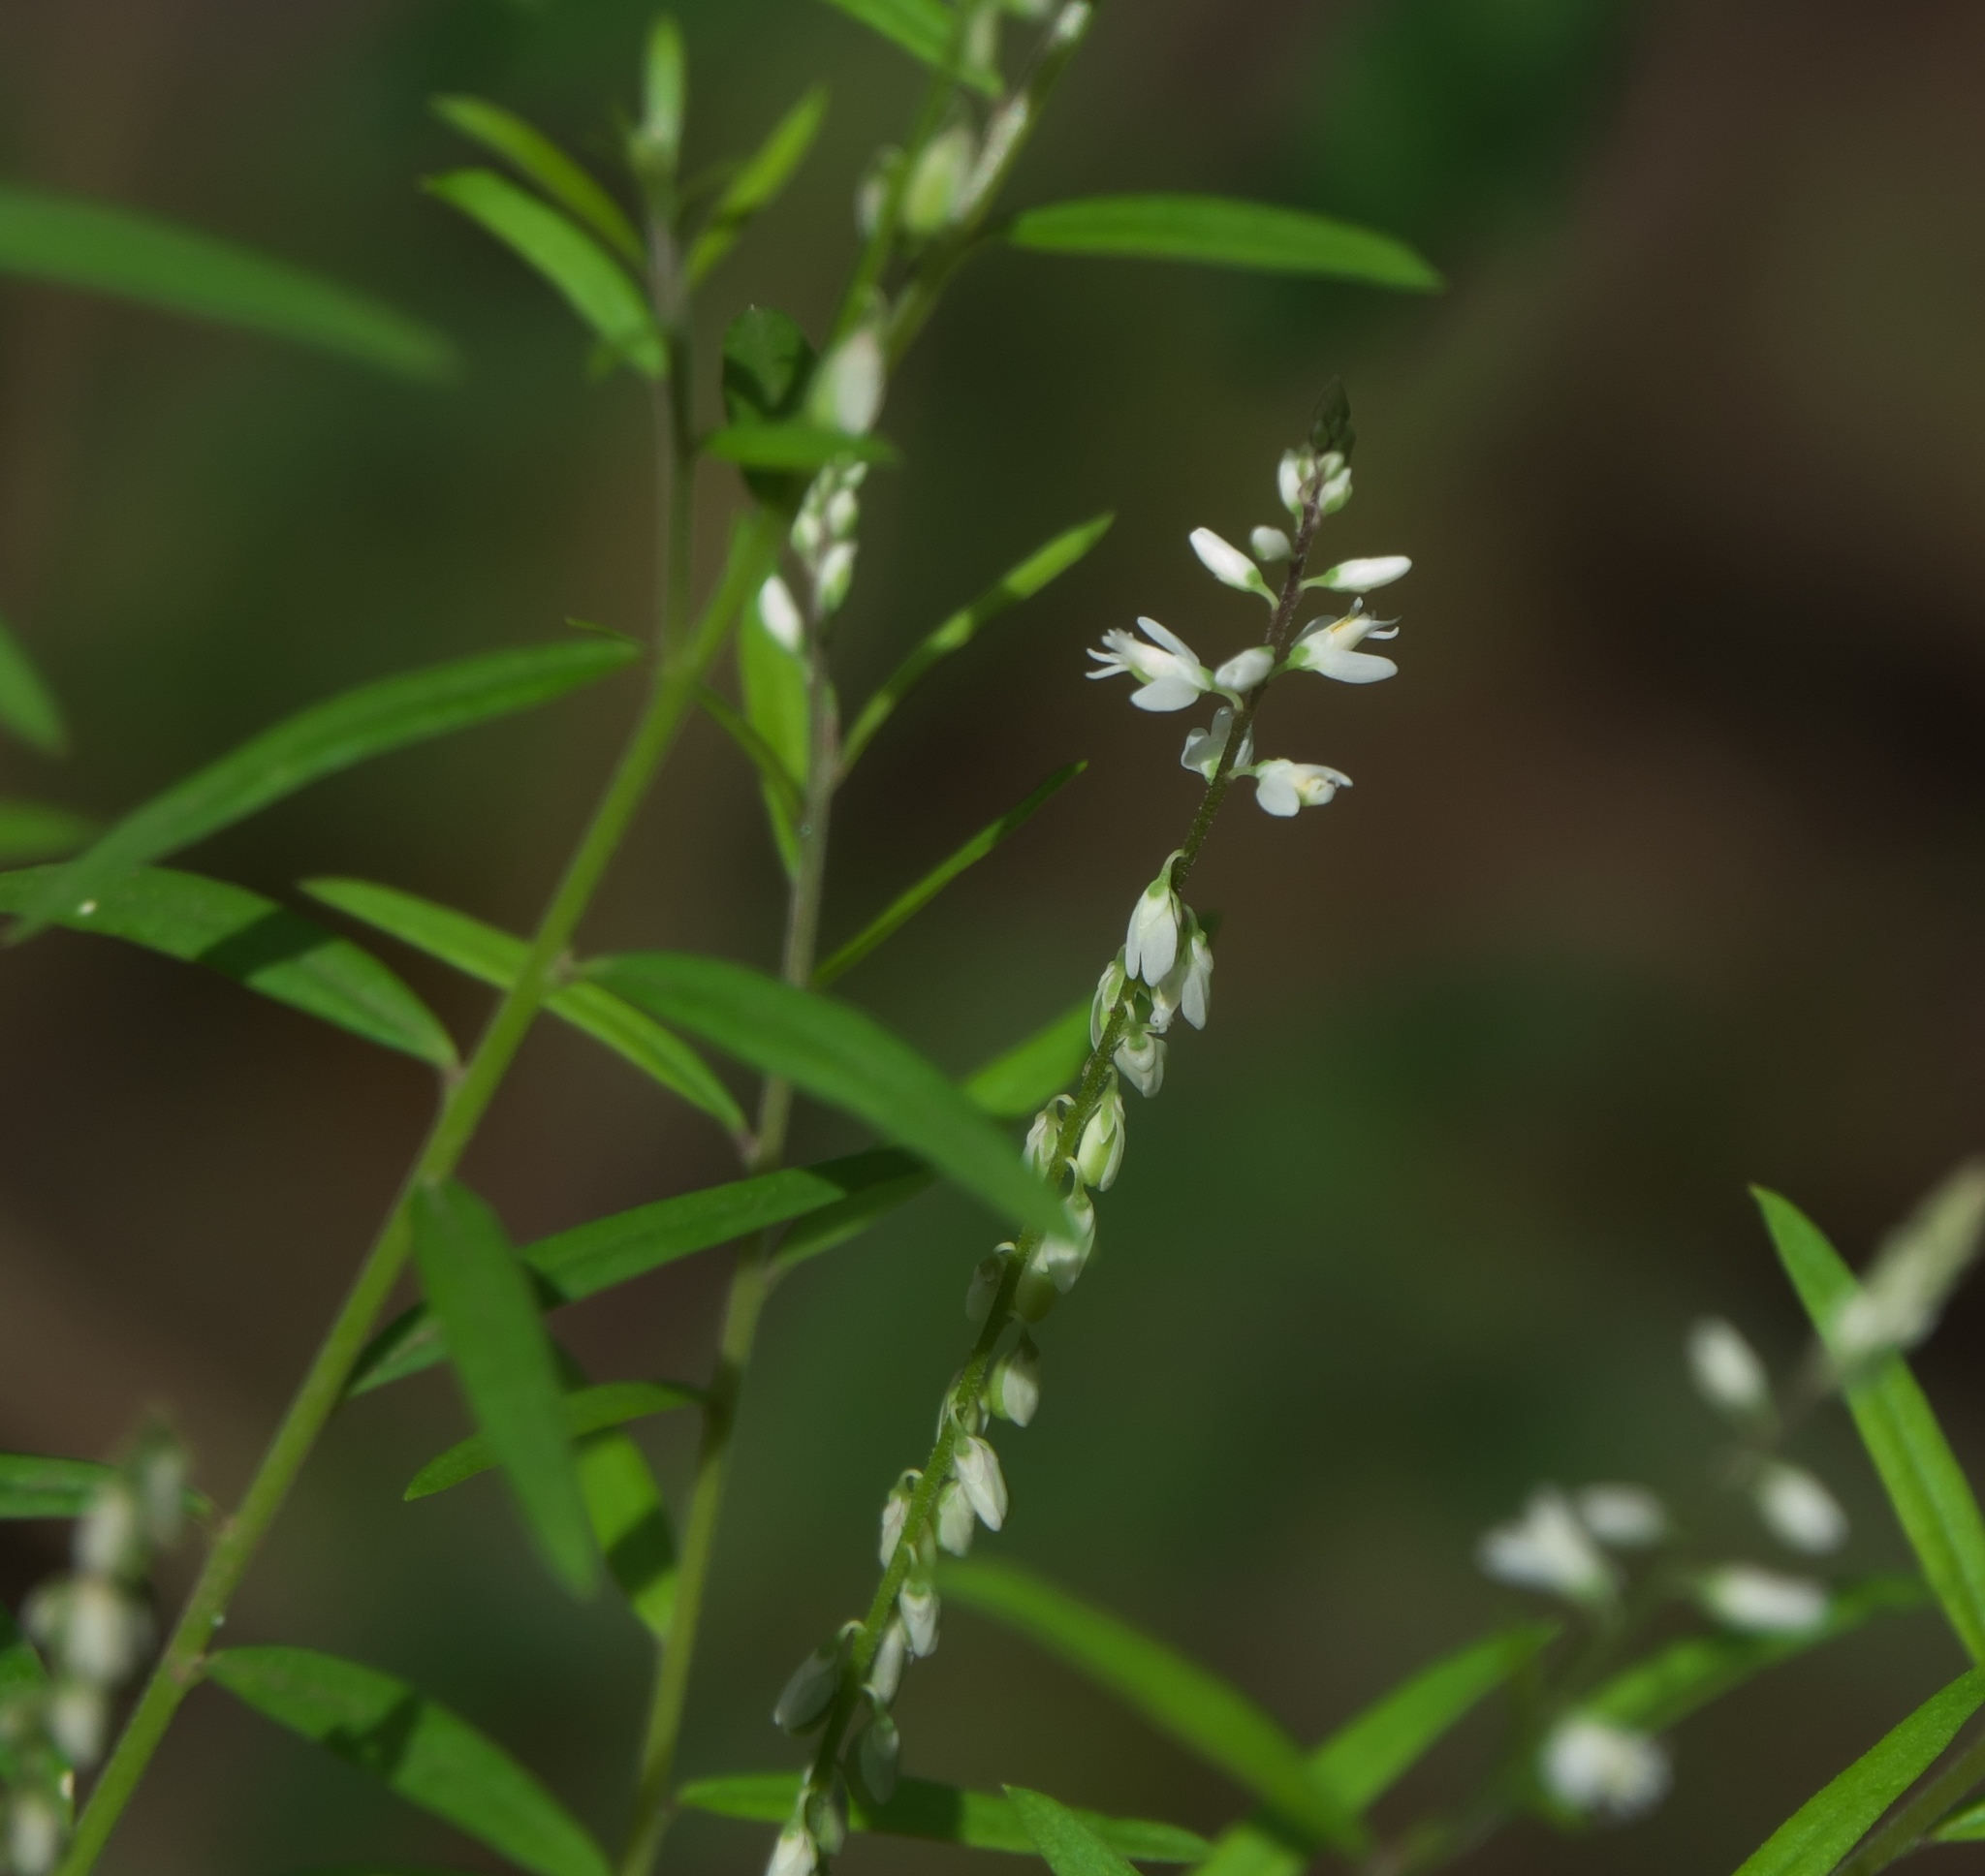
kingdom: Plantae
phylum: Tracheophyta
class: Magnoliopsida
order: Fabales
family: Polygalaceae
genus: Polygala
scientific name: Polygala paniculata
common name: Orosne
